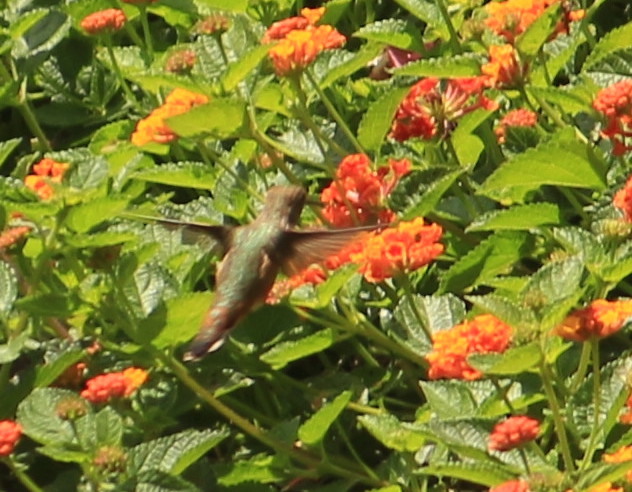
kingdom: Animalia
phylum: Chordata
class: Aves
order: Apodiformes
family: Trochilidae
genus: Selasphorus
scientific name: Selasphorus
